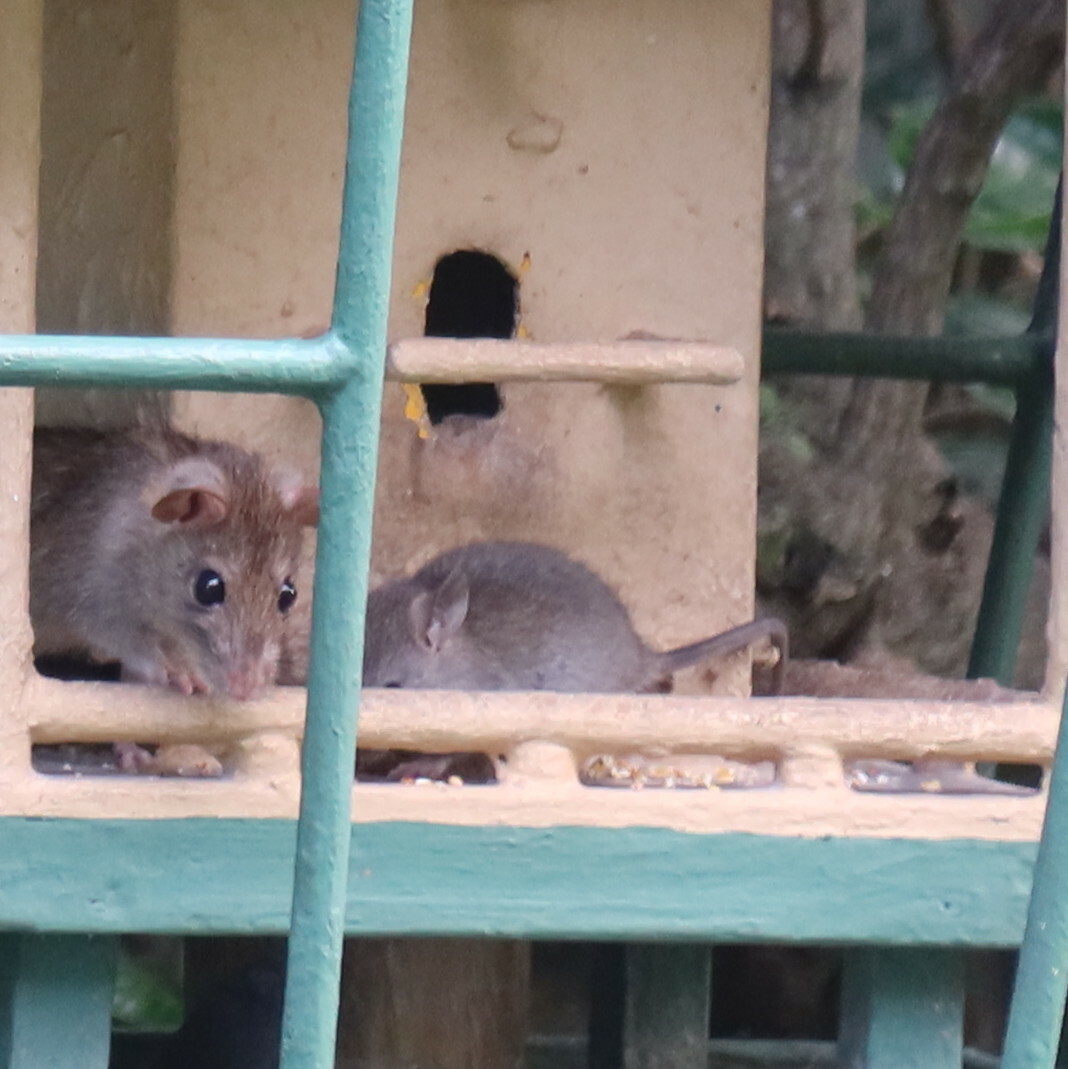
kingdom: Animalia
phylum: Chordata
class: Mammalia
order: Rodentia
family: Muridae
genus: Rattus
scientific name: Rattus rattus
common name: Black rat
